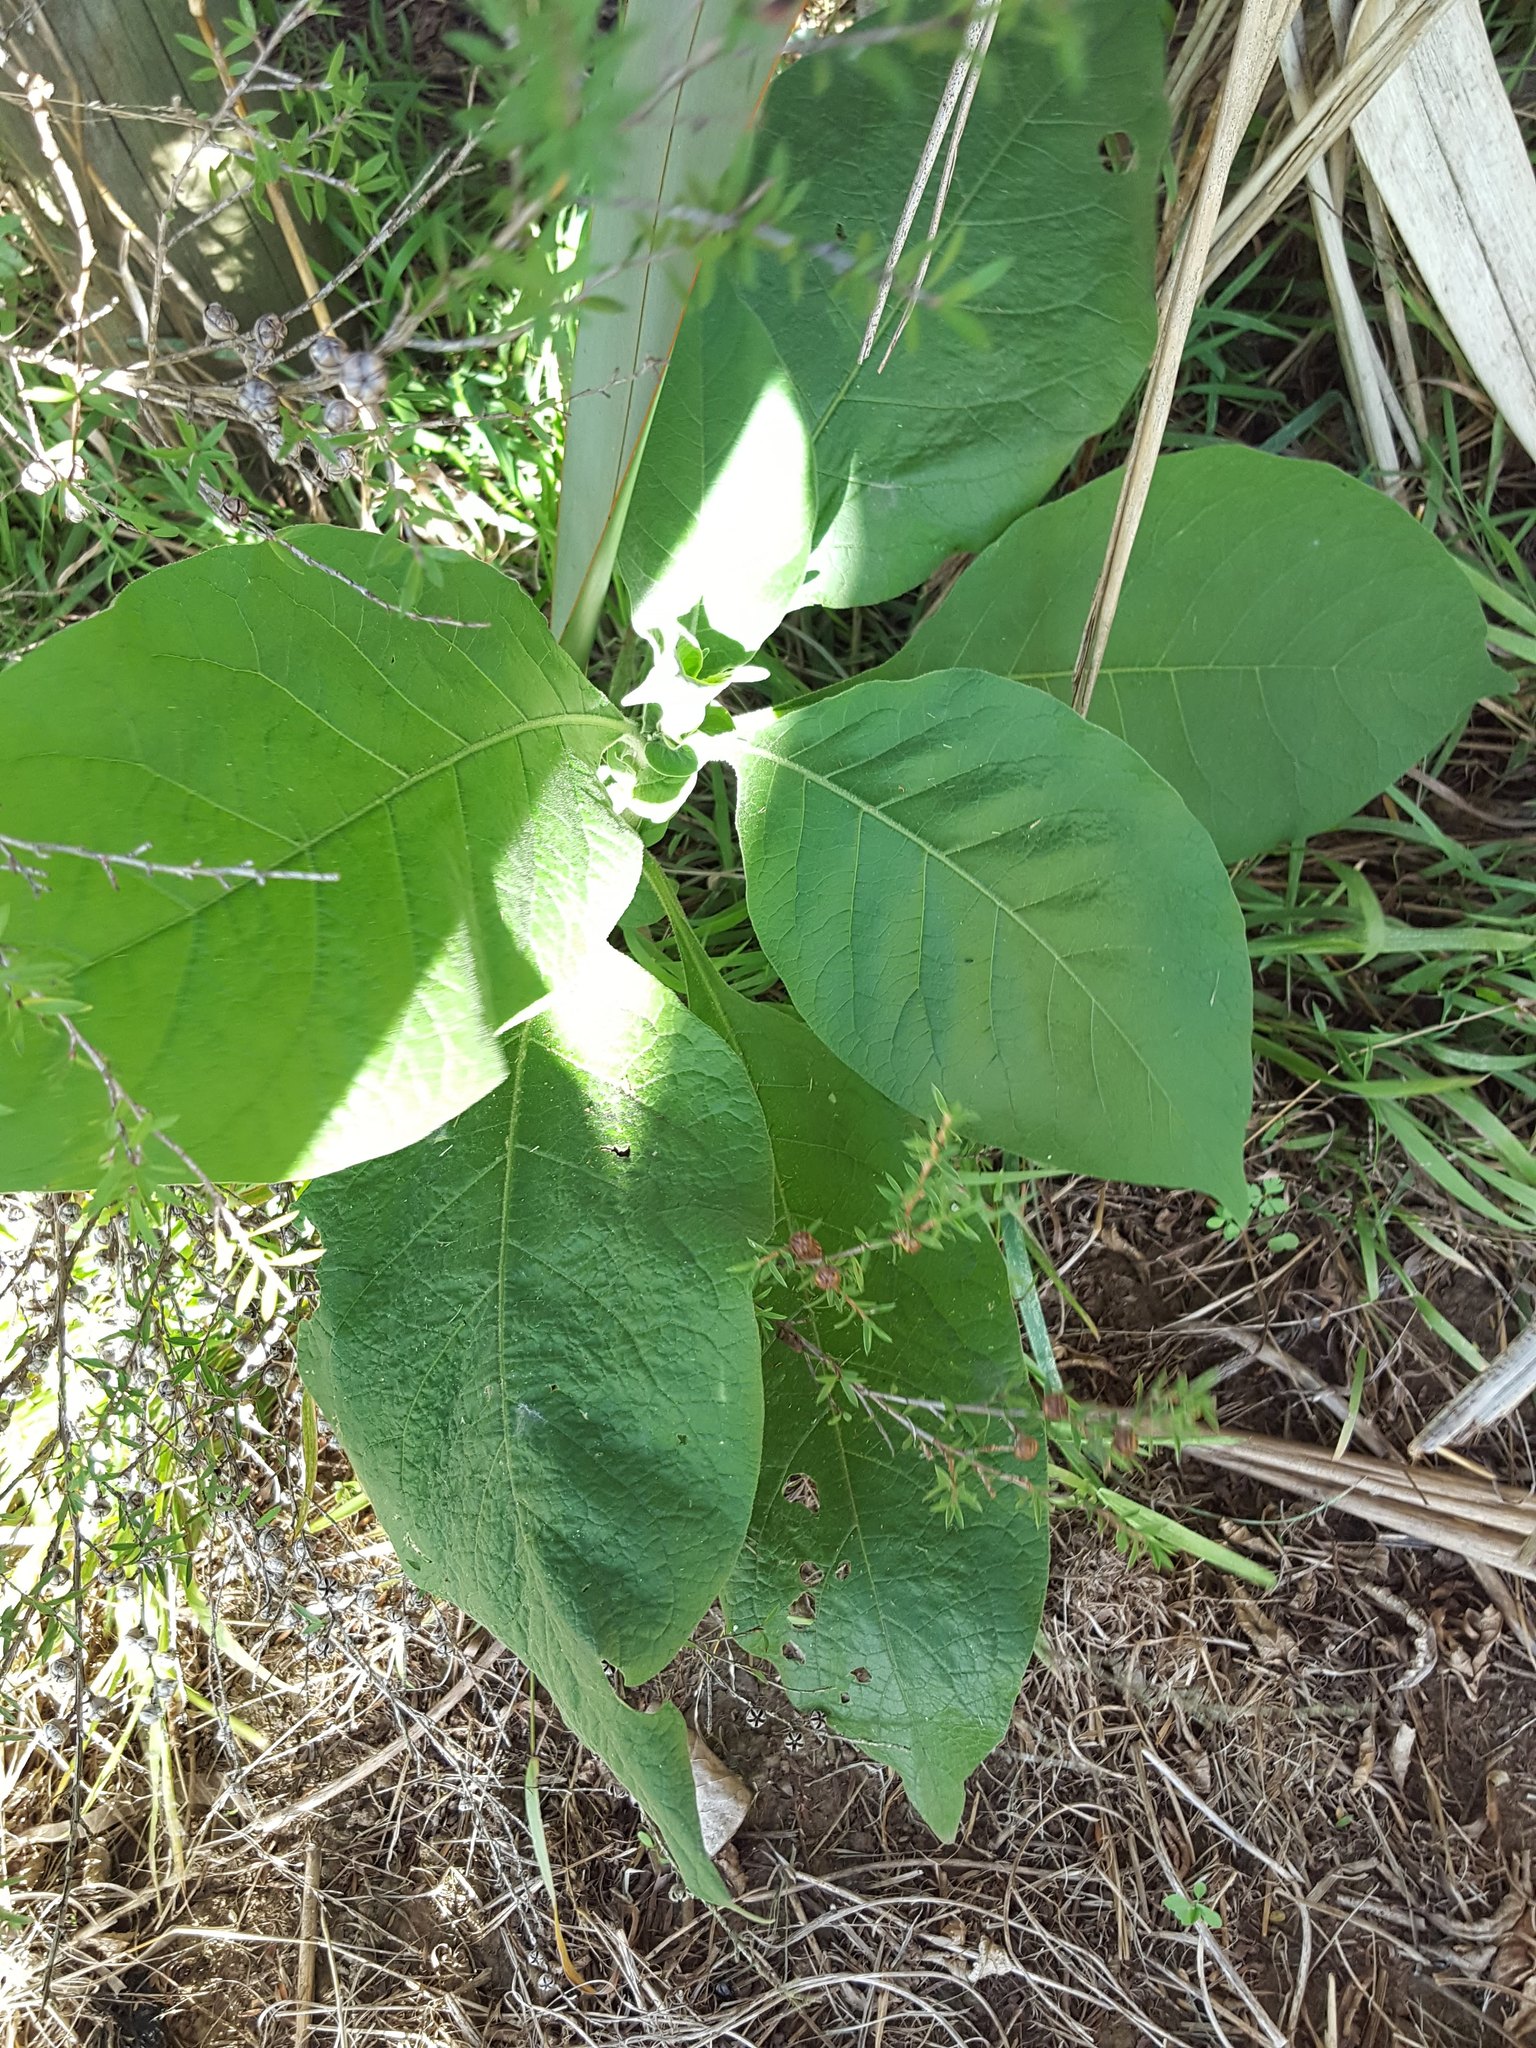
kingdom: Plantae
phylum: Tracheophyta
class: Magnoliopsida
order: Solanales
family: Solanaceae
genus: Solanum
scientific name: Solanum mauritianum
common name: Earleaf nightshade
